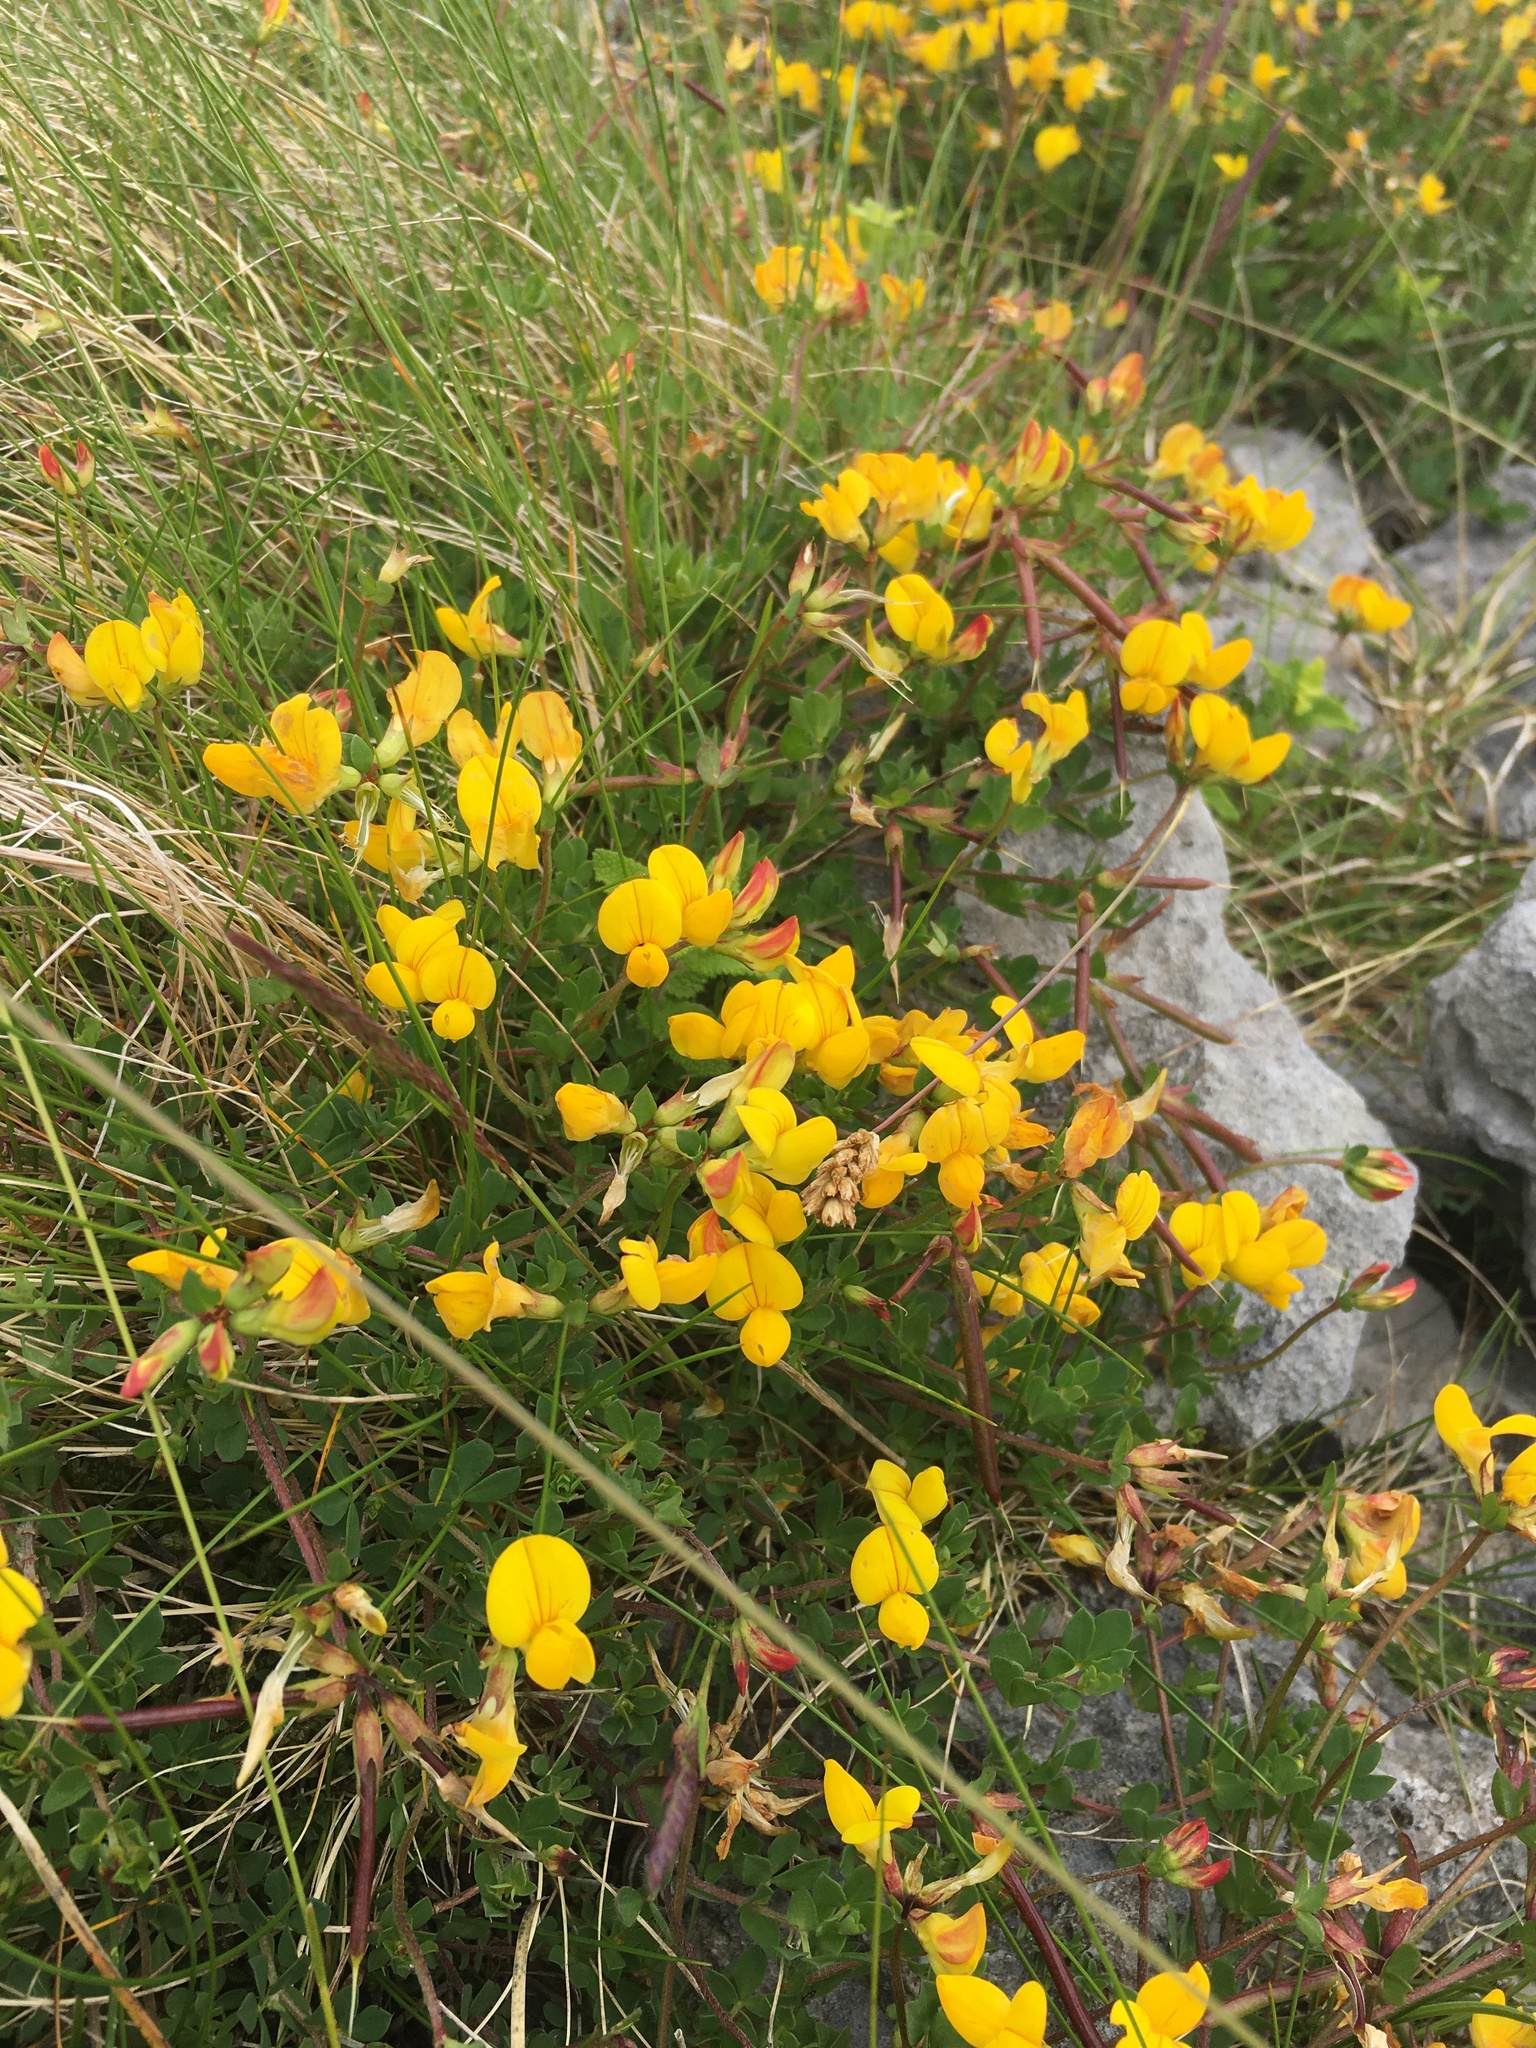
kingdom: Plantae
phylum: Tracheophyta
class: Magnoliopsida
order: Fabales
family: Fabaceae
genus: Lotus
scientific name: Lotus corniculatus
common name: Common bird's-foot-trefoil
